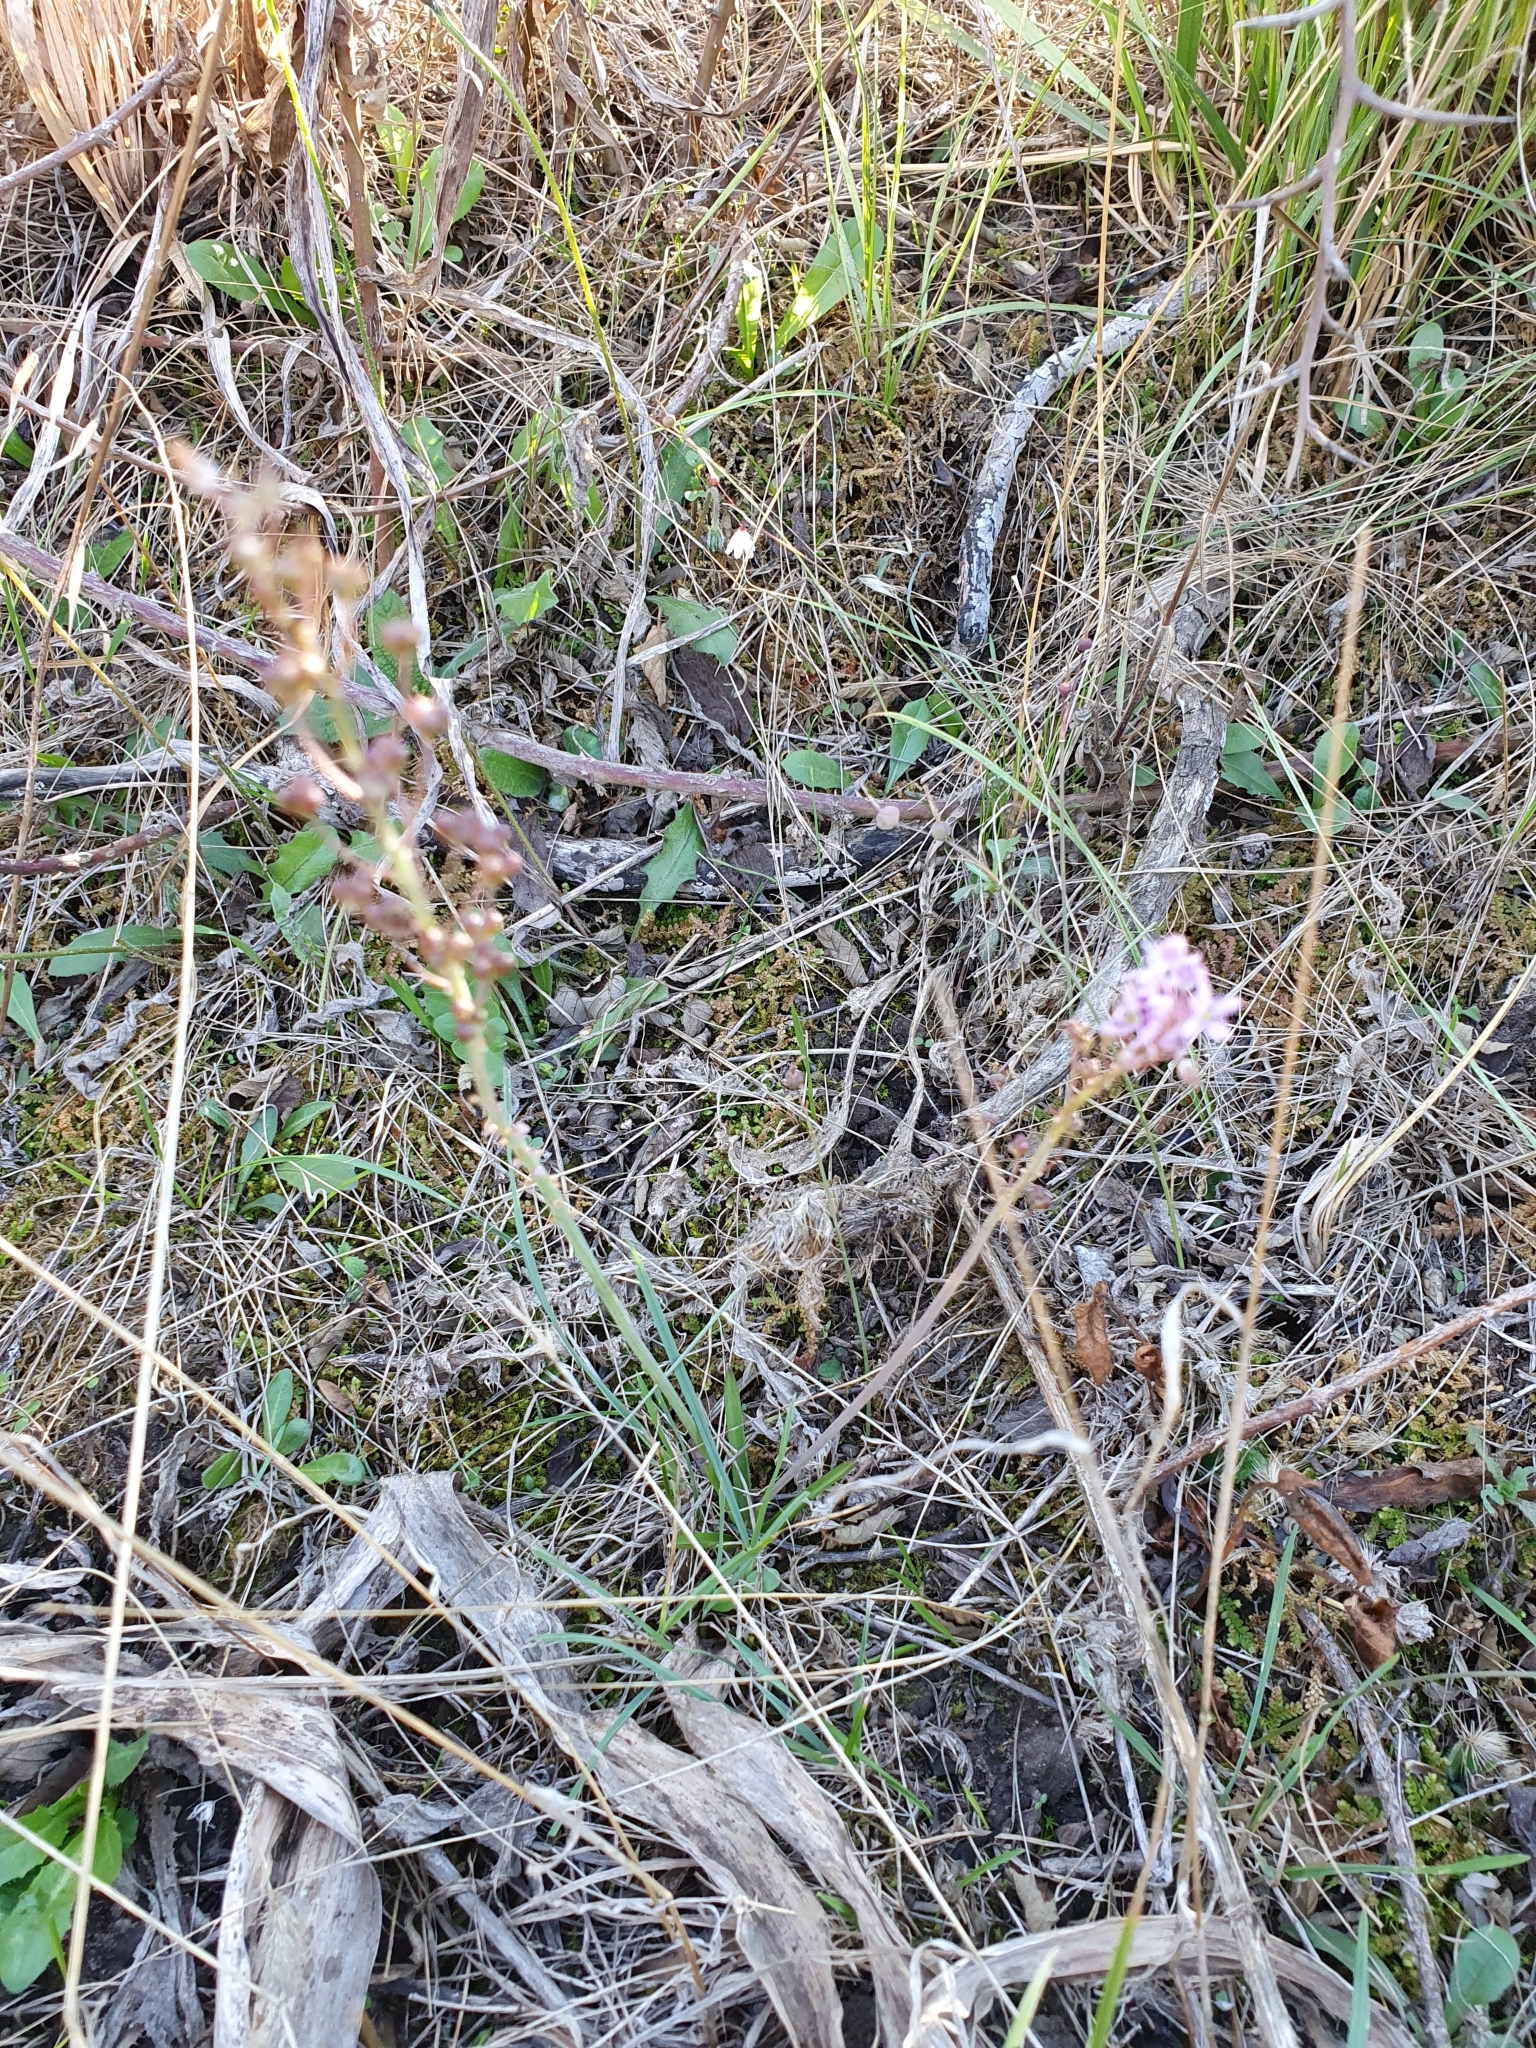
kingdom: Plantae
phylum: Tracheophyta
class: Liliopsida
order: Asparagales
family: Asparagaceae
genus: Barnardia
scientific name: Barnardia numidica
